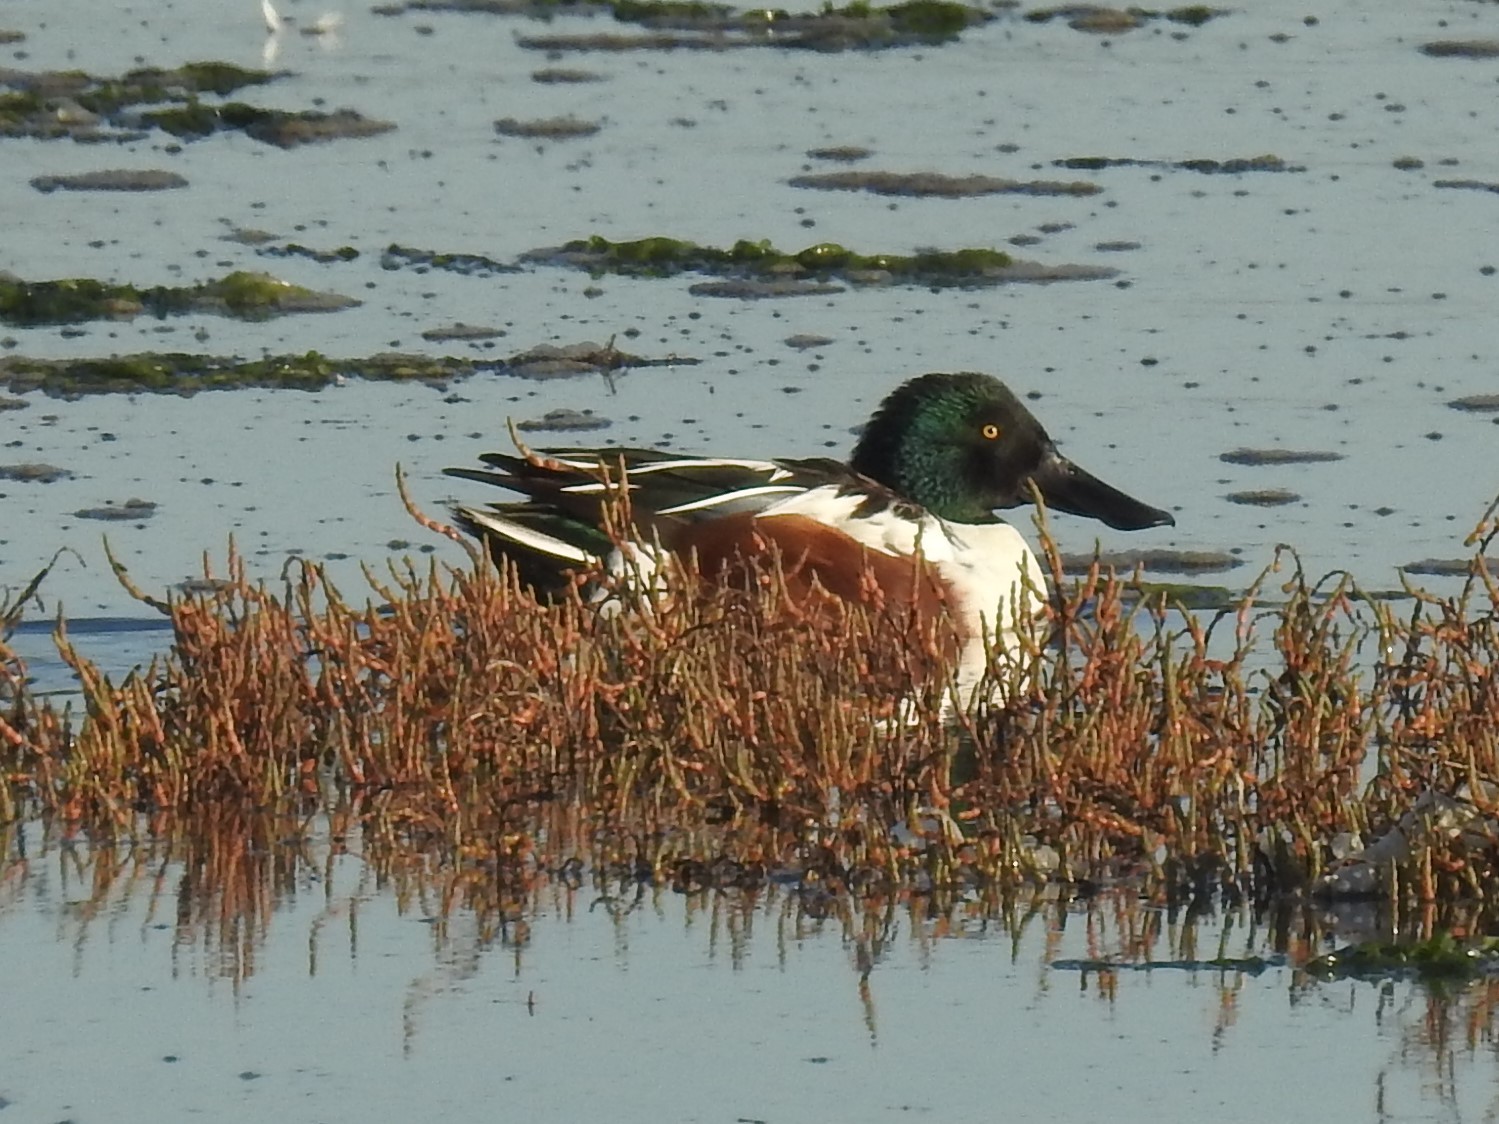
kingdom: Animalia
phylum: Chordata
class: Aves
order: Anseriformes
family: Anatidae
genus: Spatula
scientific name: Spatula clypeata
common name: Northern shoveler
